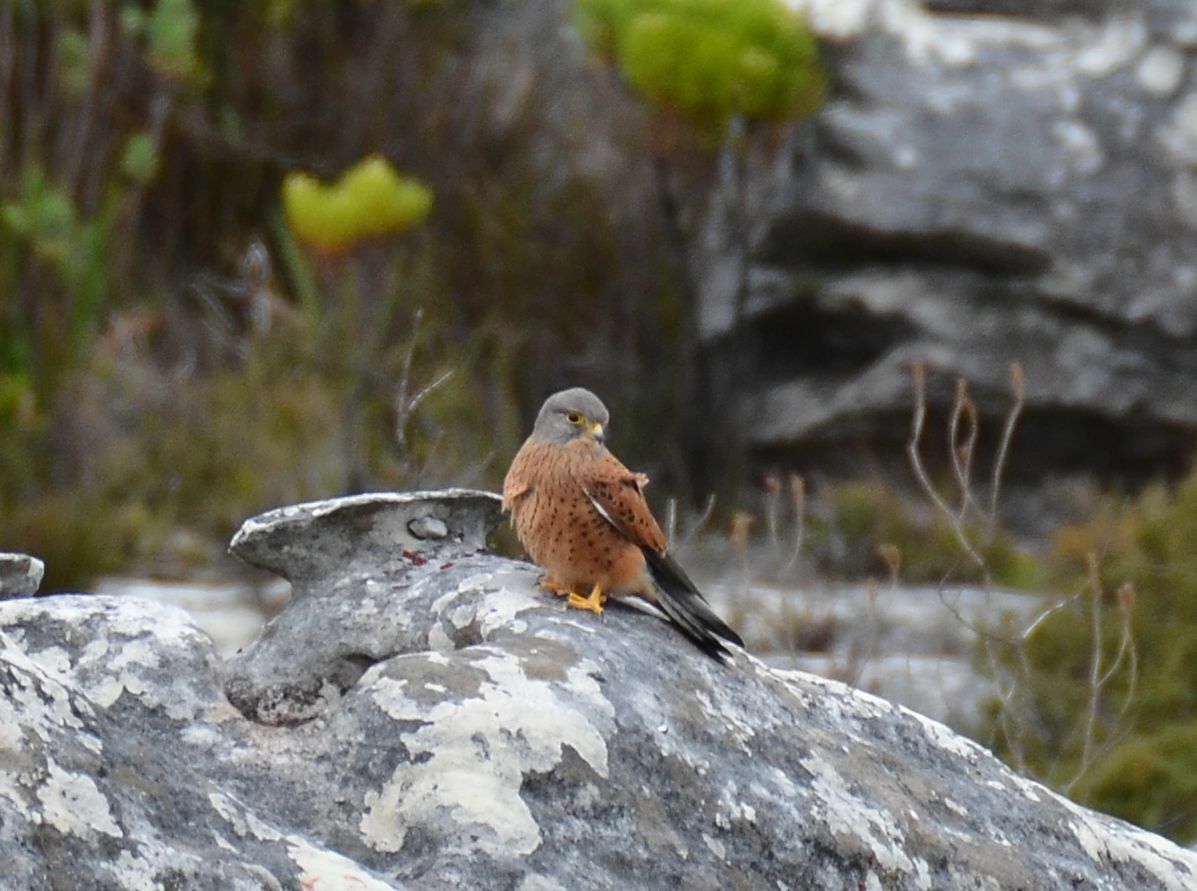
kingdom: Animalia
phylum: Chordata
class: Aves
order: Falconiformes
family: Falconidae
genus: Falco
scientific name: Falco rupicolus
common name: Rock kestrel
